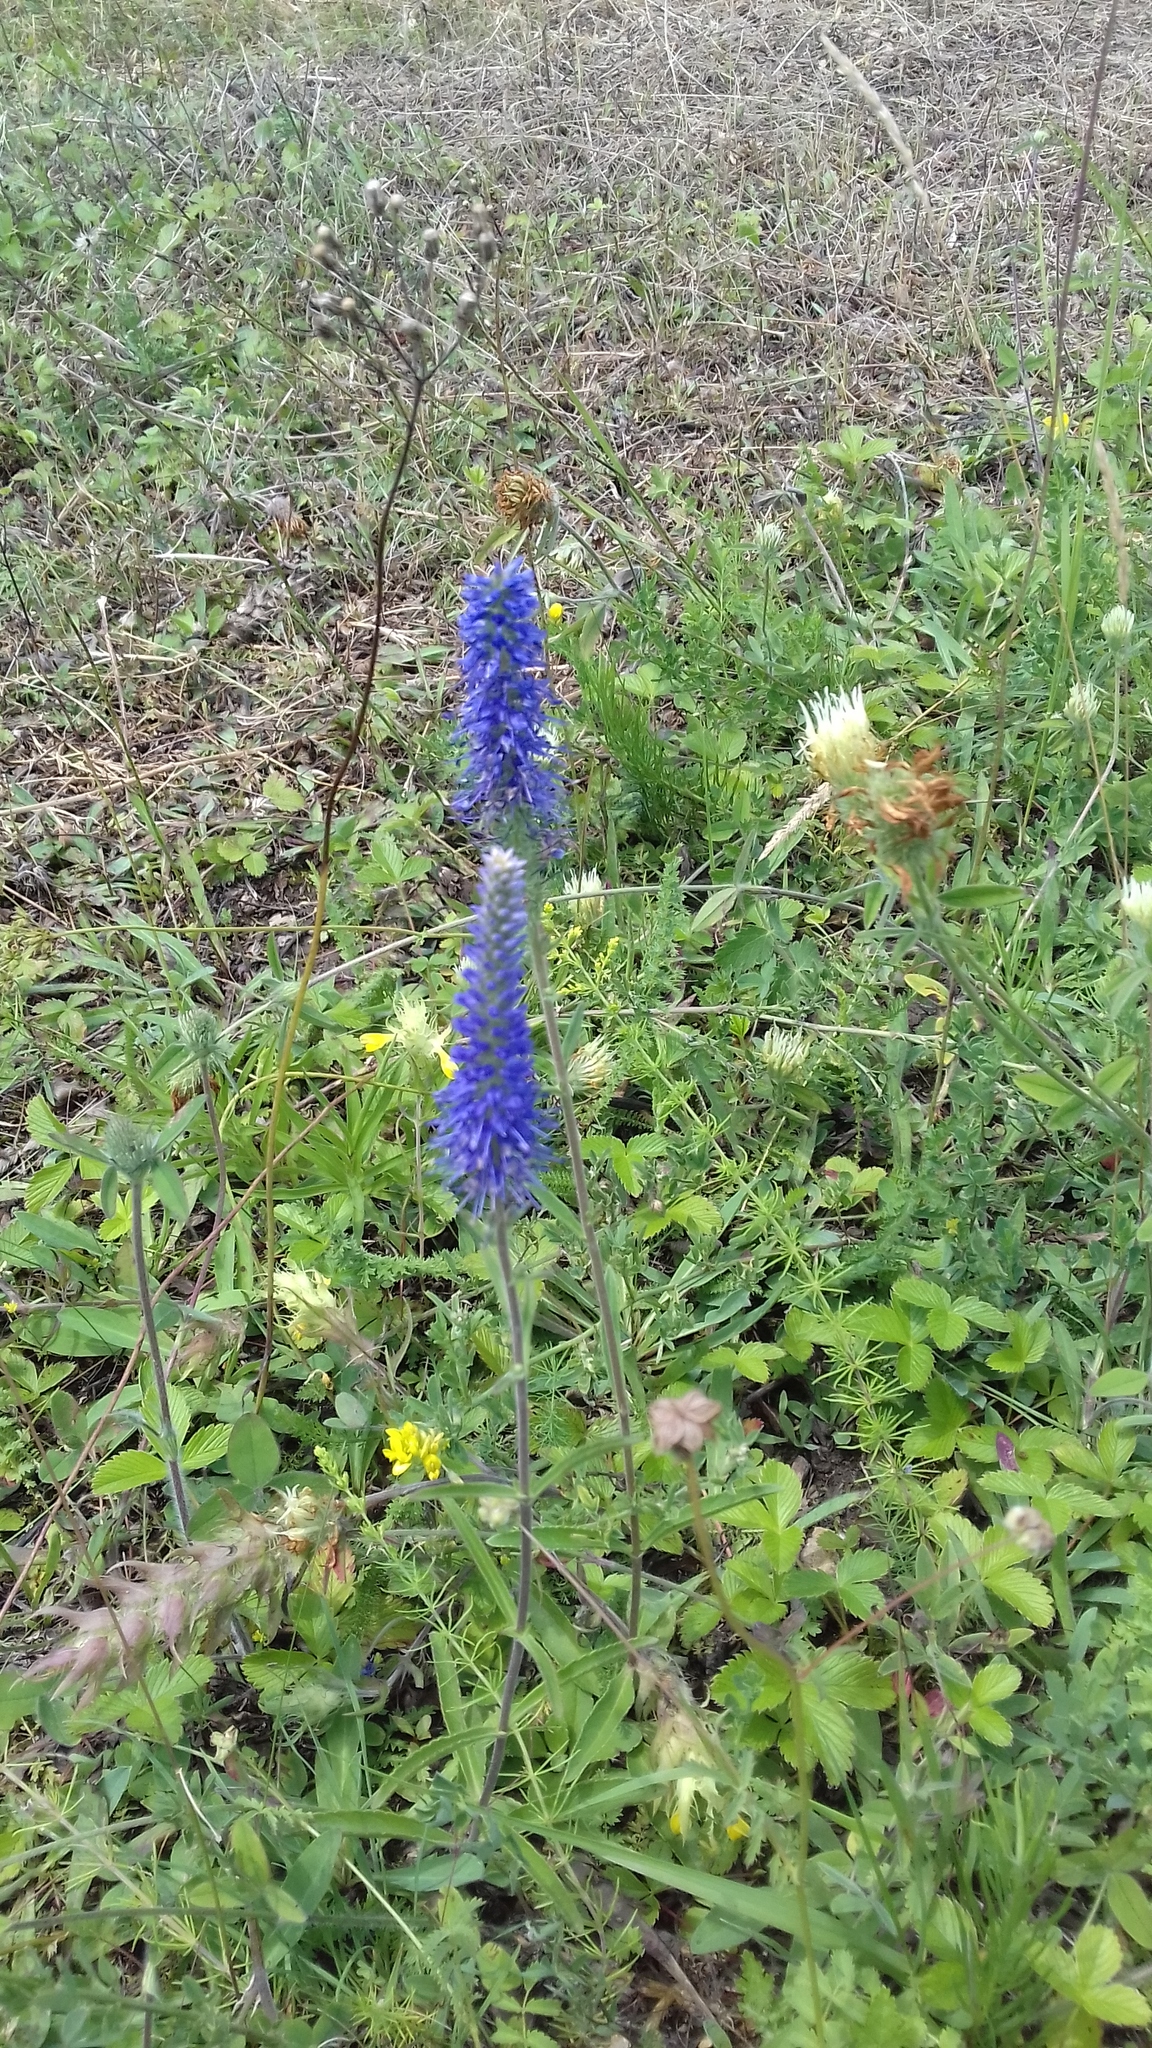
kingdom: Plantae
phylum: Tracheophyta
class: Magnoliopsida
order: Lamiales
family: Plantaginaceae
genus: Veronica
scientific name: Veronica spicata
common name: Spiked speedwell
